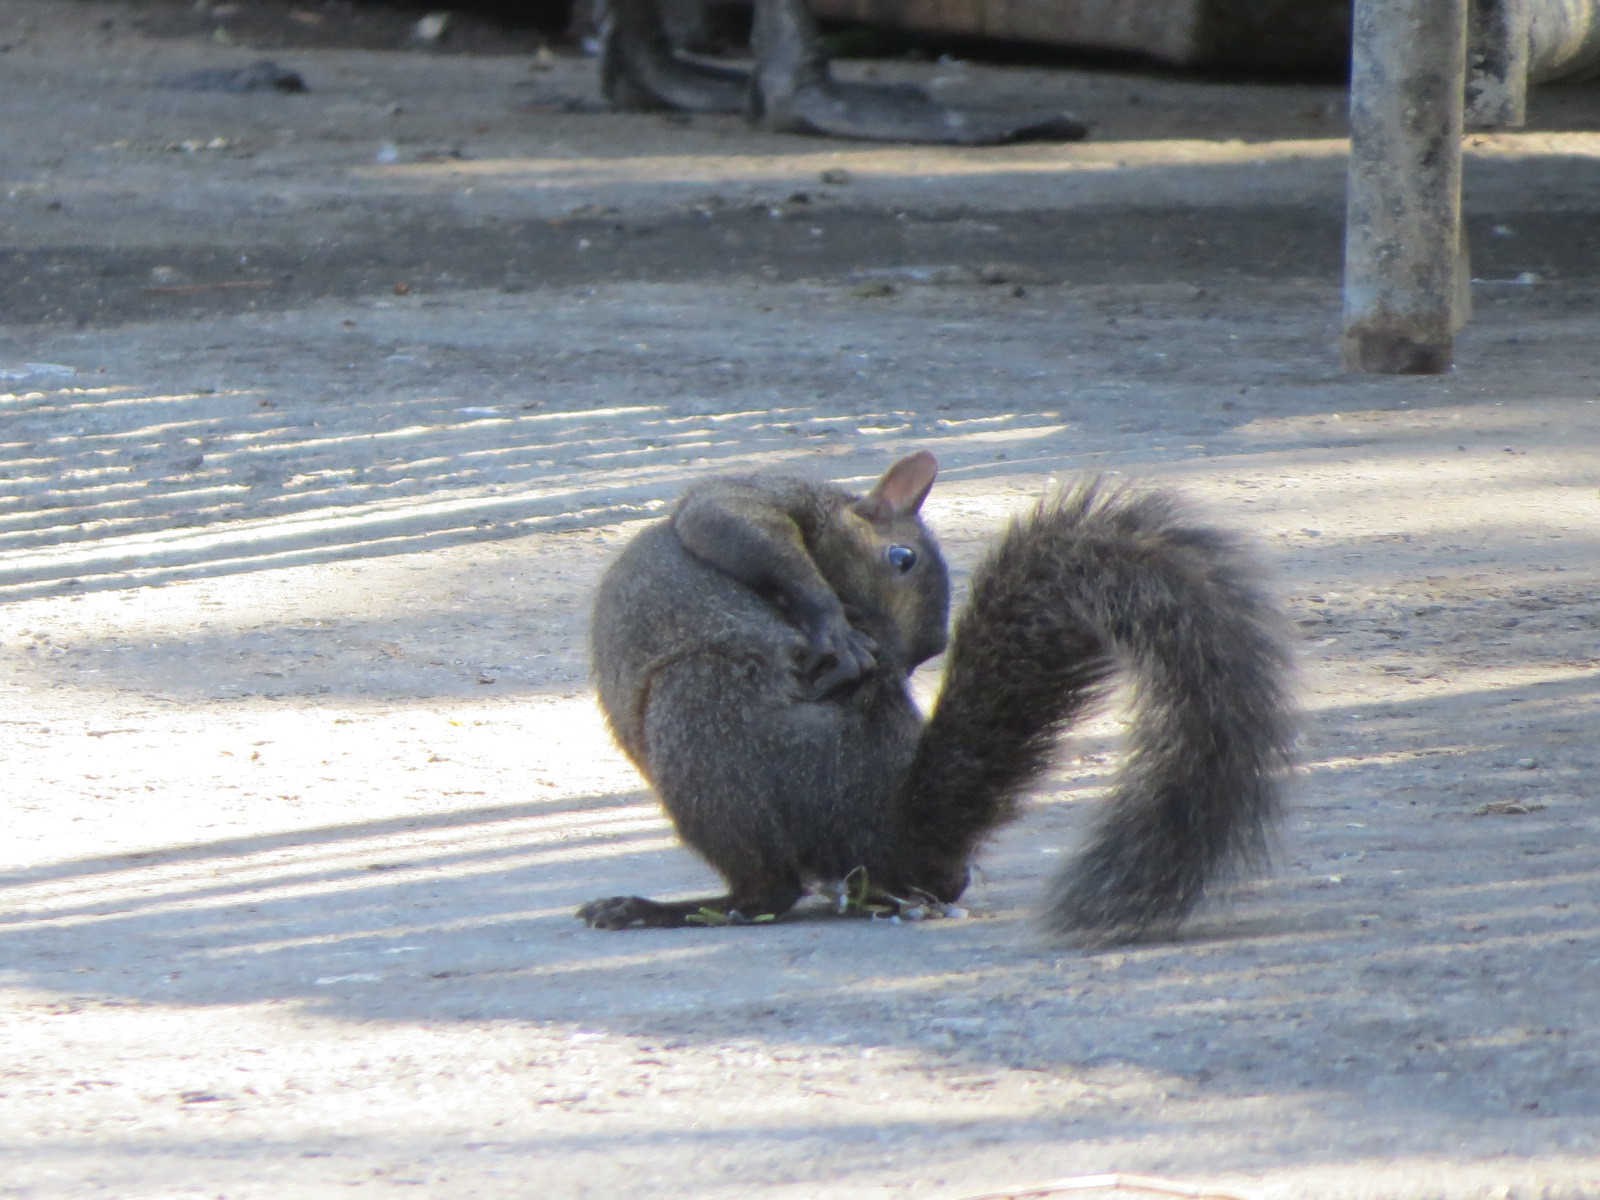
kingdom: Animalia
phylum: Chordata
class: Mammalia
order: Rodentia
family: Sciuridae
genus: Sciurus
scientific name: Sciurus carolinensis
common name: Eastern gray squirrel
